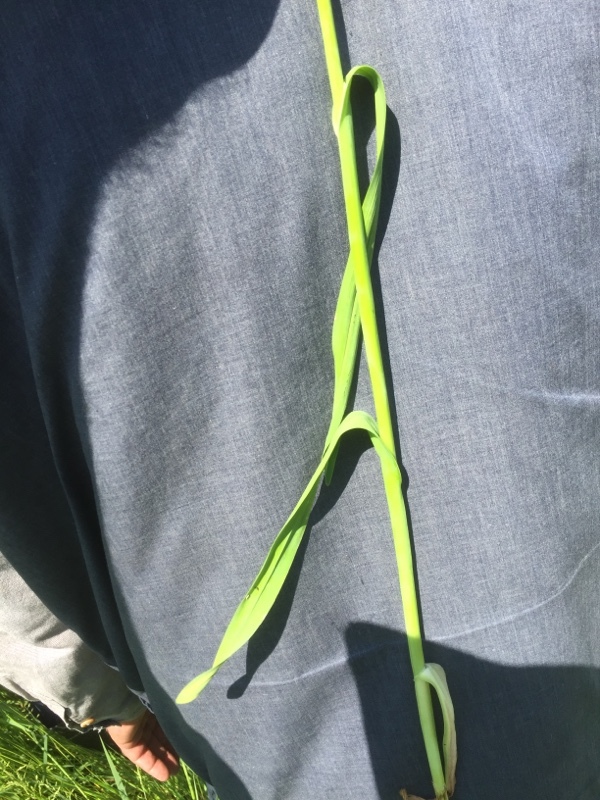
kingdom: Plantae
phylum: Tracheophyta
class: Liliopsida
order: Asparagales
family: Amaryllidaceae
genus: Allium
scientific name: Allium scorodoprasum
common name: Sand leek
